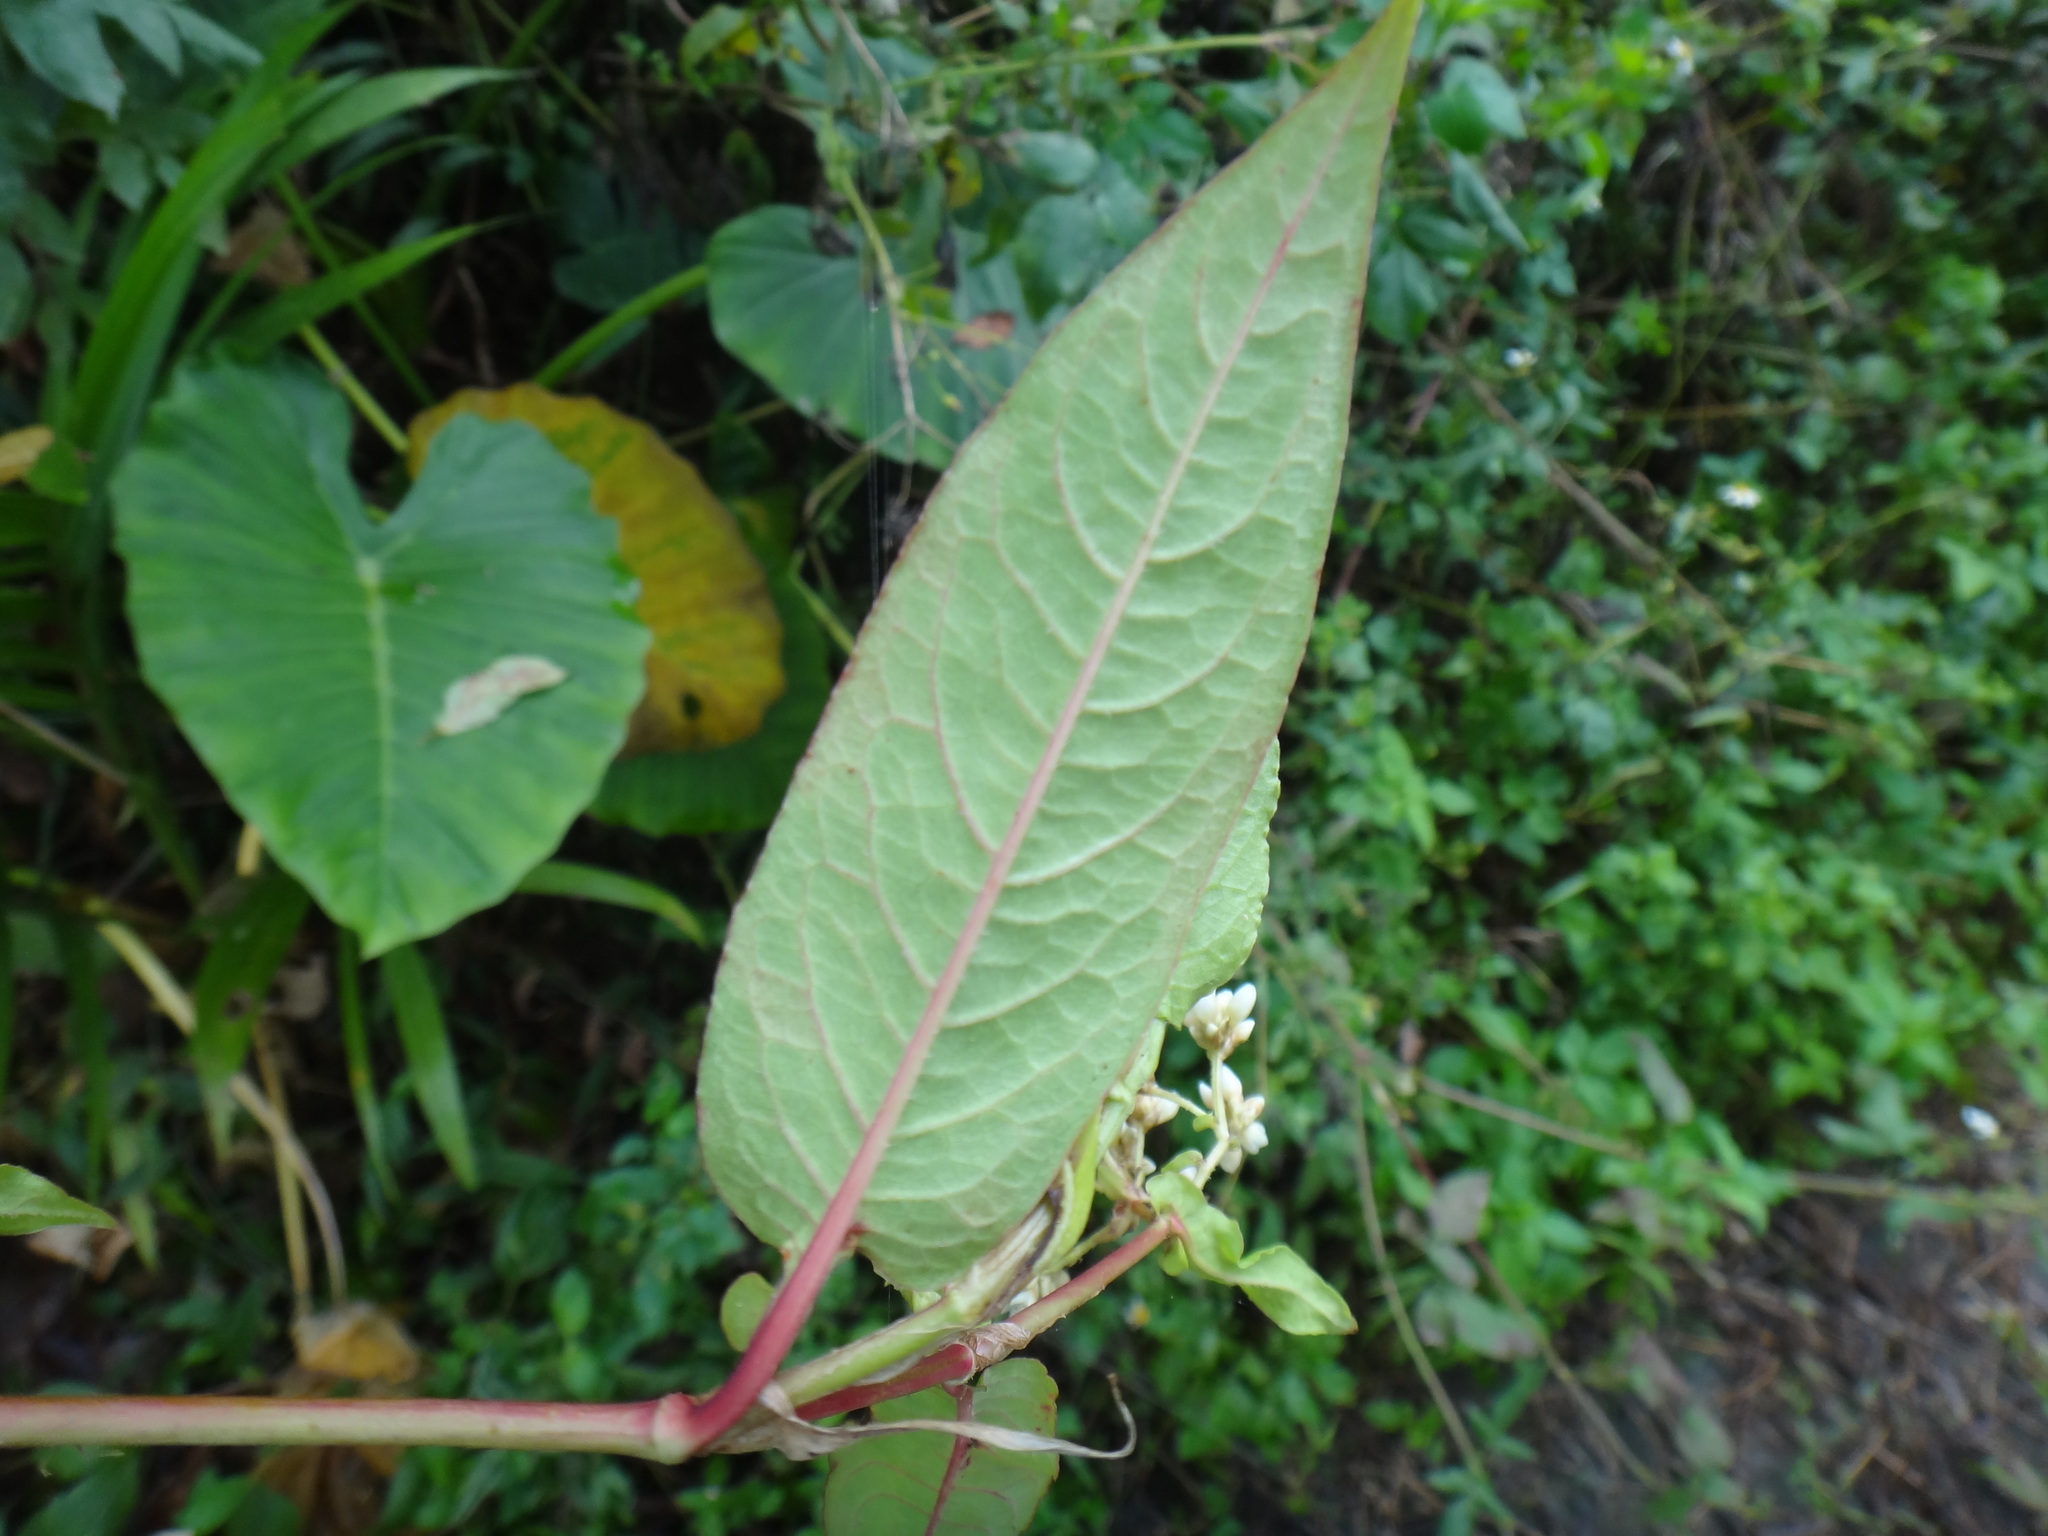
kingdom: Plantae
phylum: Tracheophyta
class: Magnoliopsida
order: Caryophyllales
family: Polygonaceae
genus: Persicaria
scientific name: Persicaria chinensis
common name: Chinese knotweed
